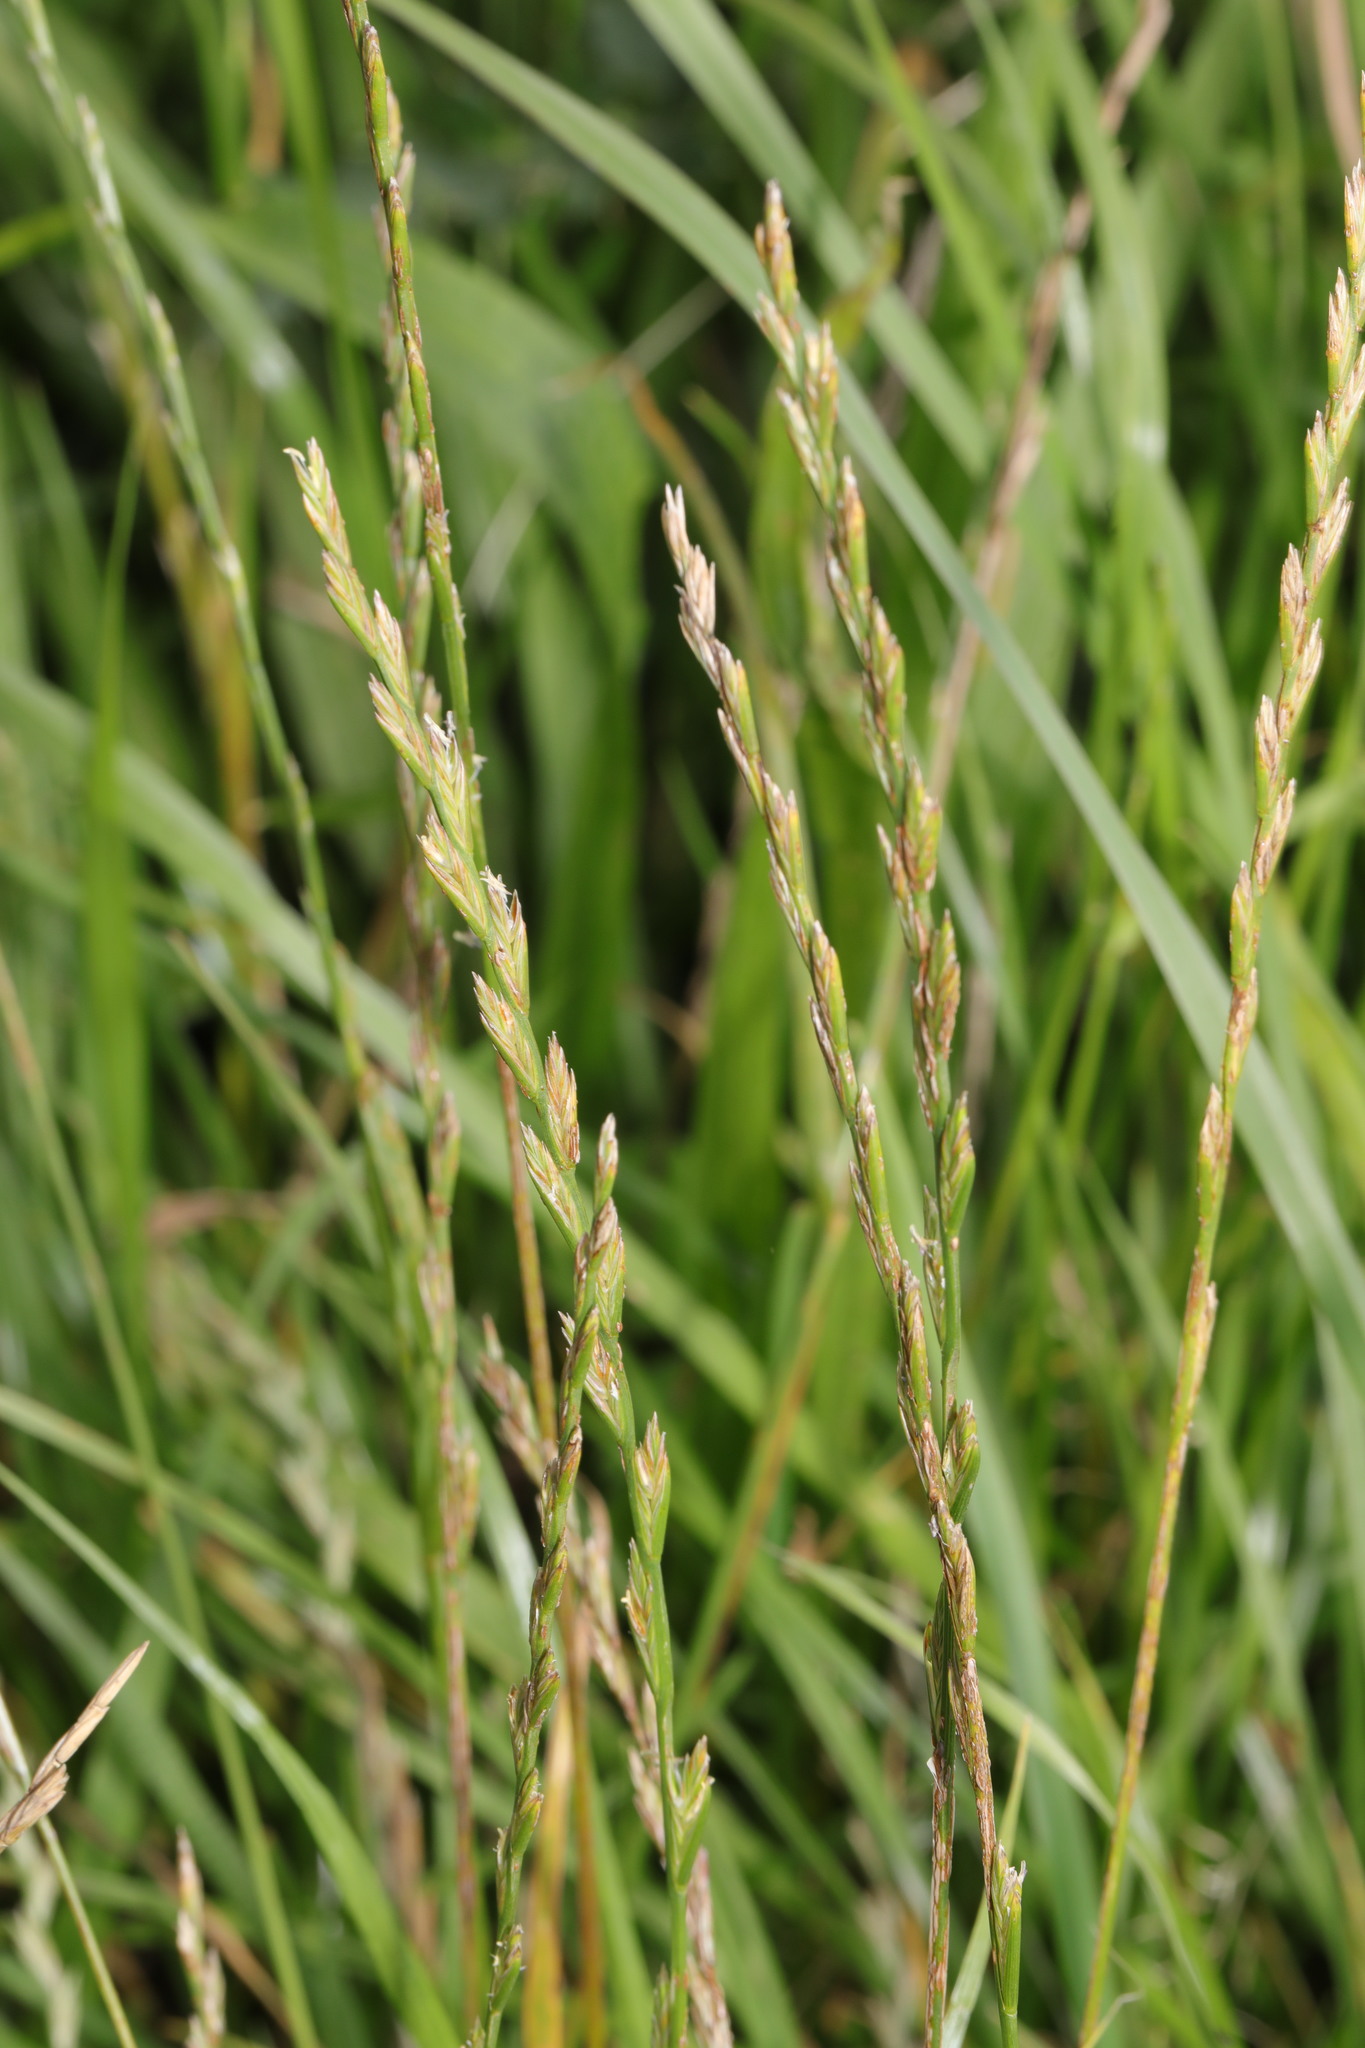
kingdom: Plantae
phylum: Tracheophyta
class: Liliopsida
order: Poales
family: Poaceae
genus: Lolium
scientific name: Lolium perenne
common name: Perennial ryegrass
